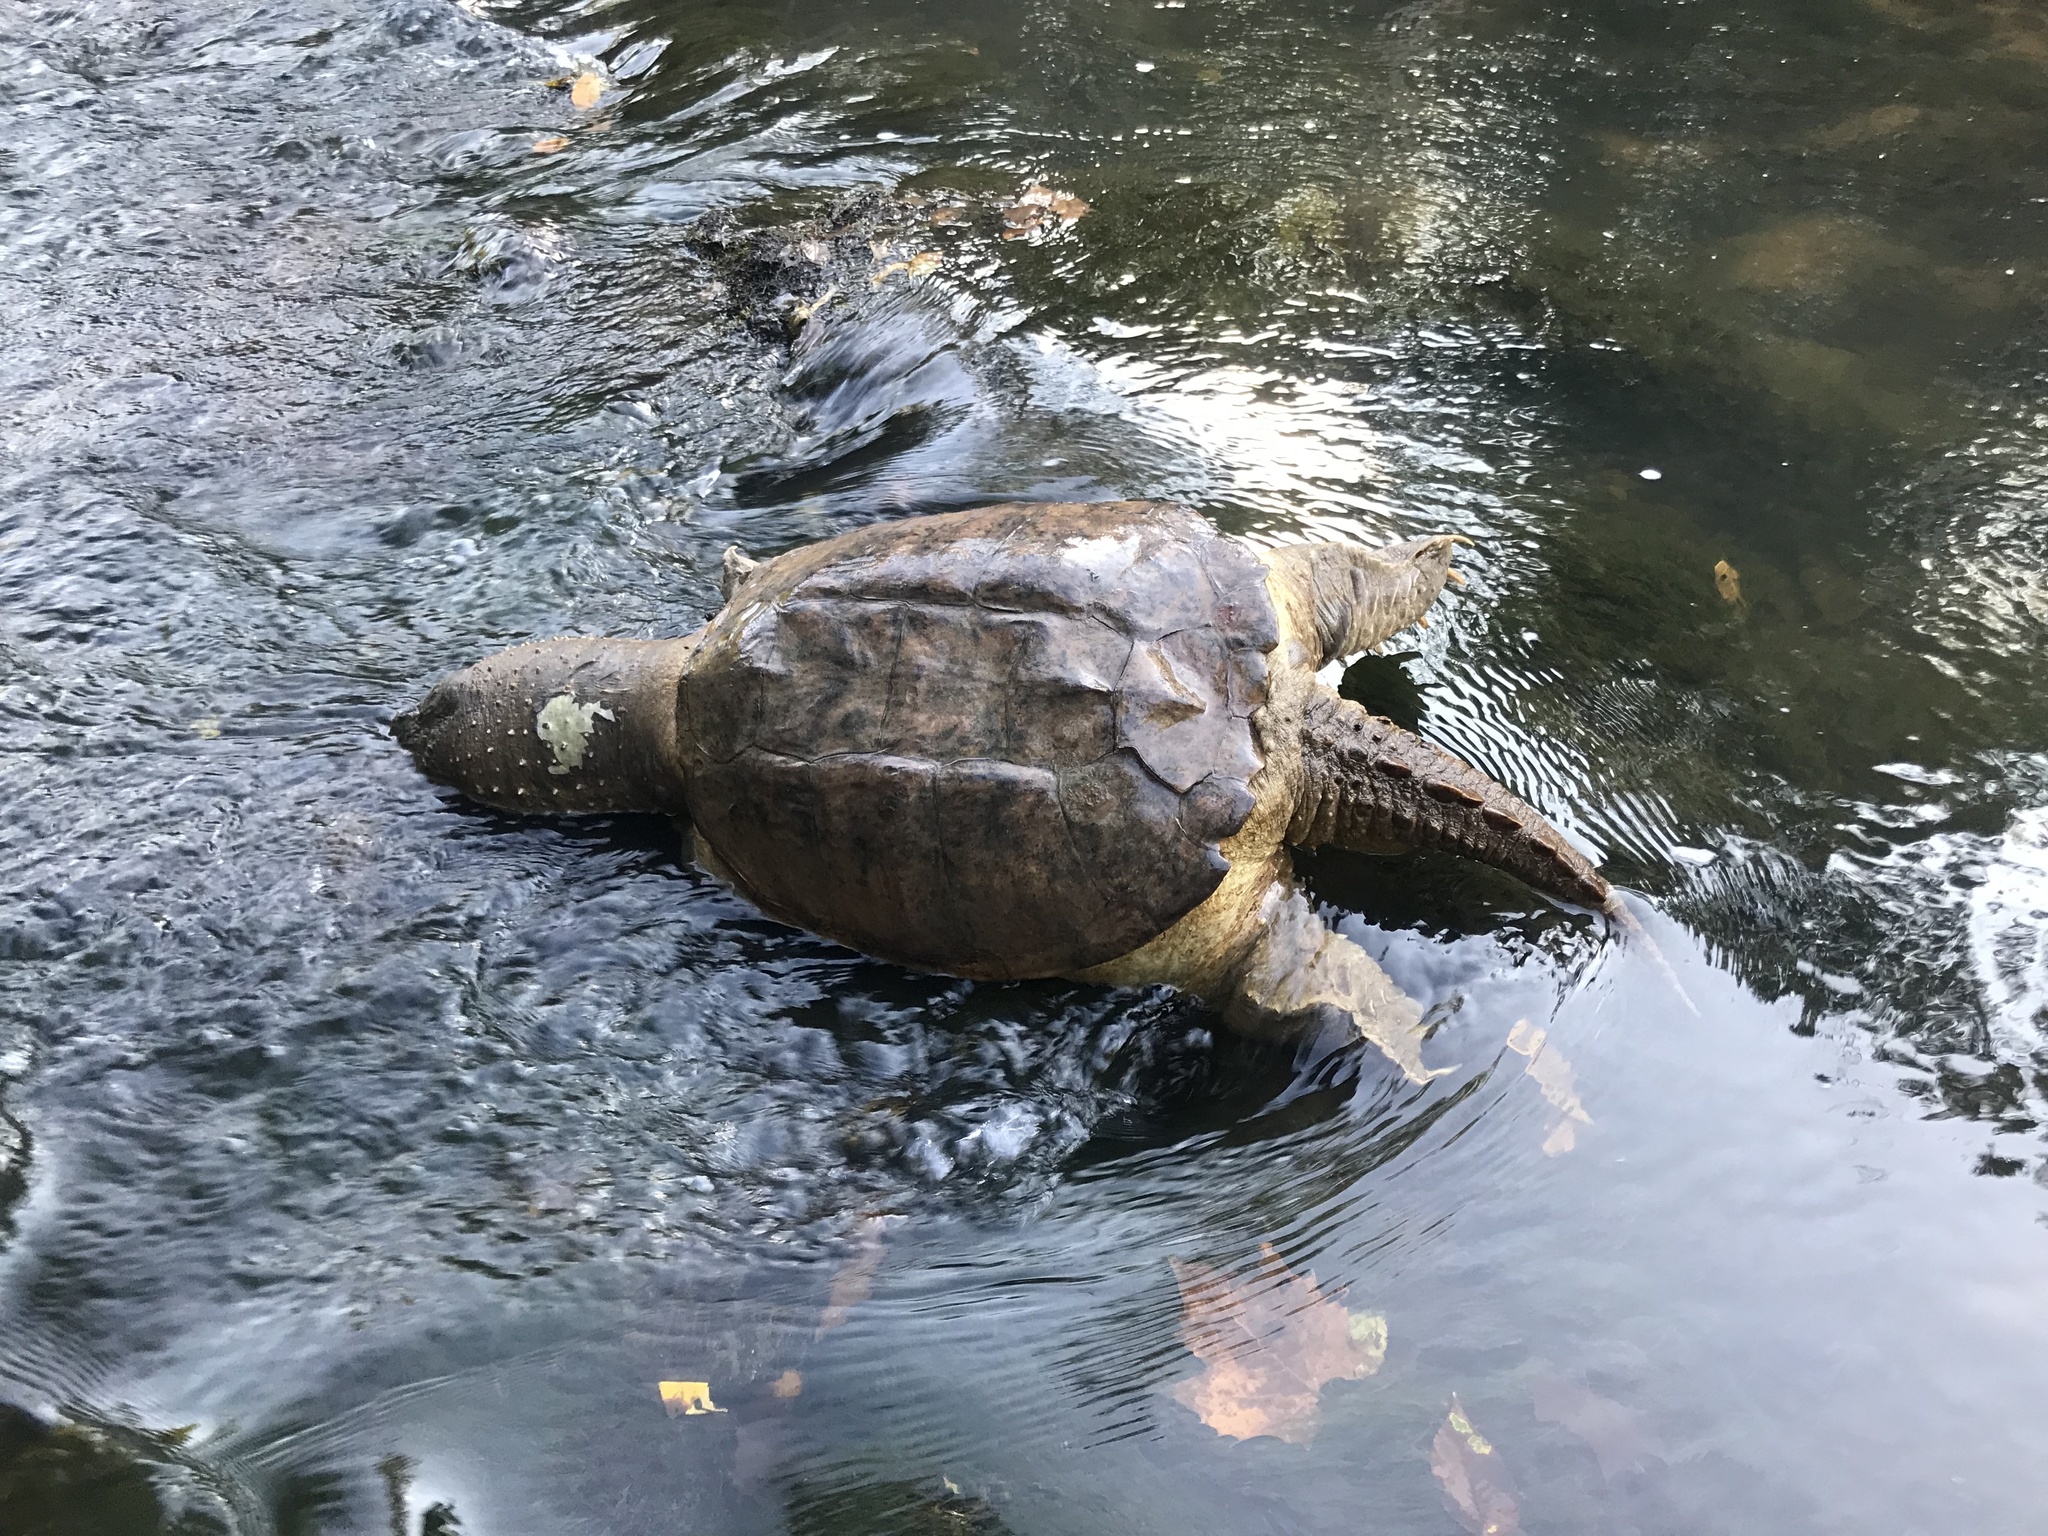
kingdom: Animalia
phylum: Chordata
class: Testudines
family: Chelydridae
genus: Chelydra
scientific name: Chelydra serpentina
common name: Common snapping turtle
